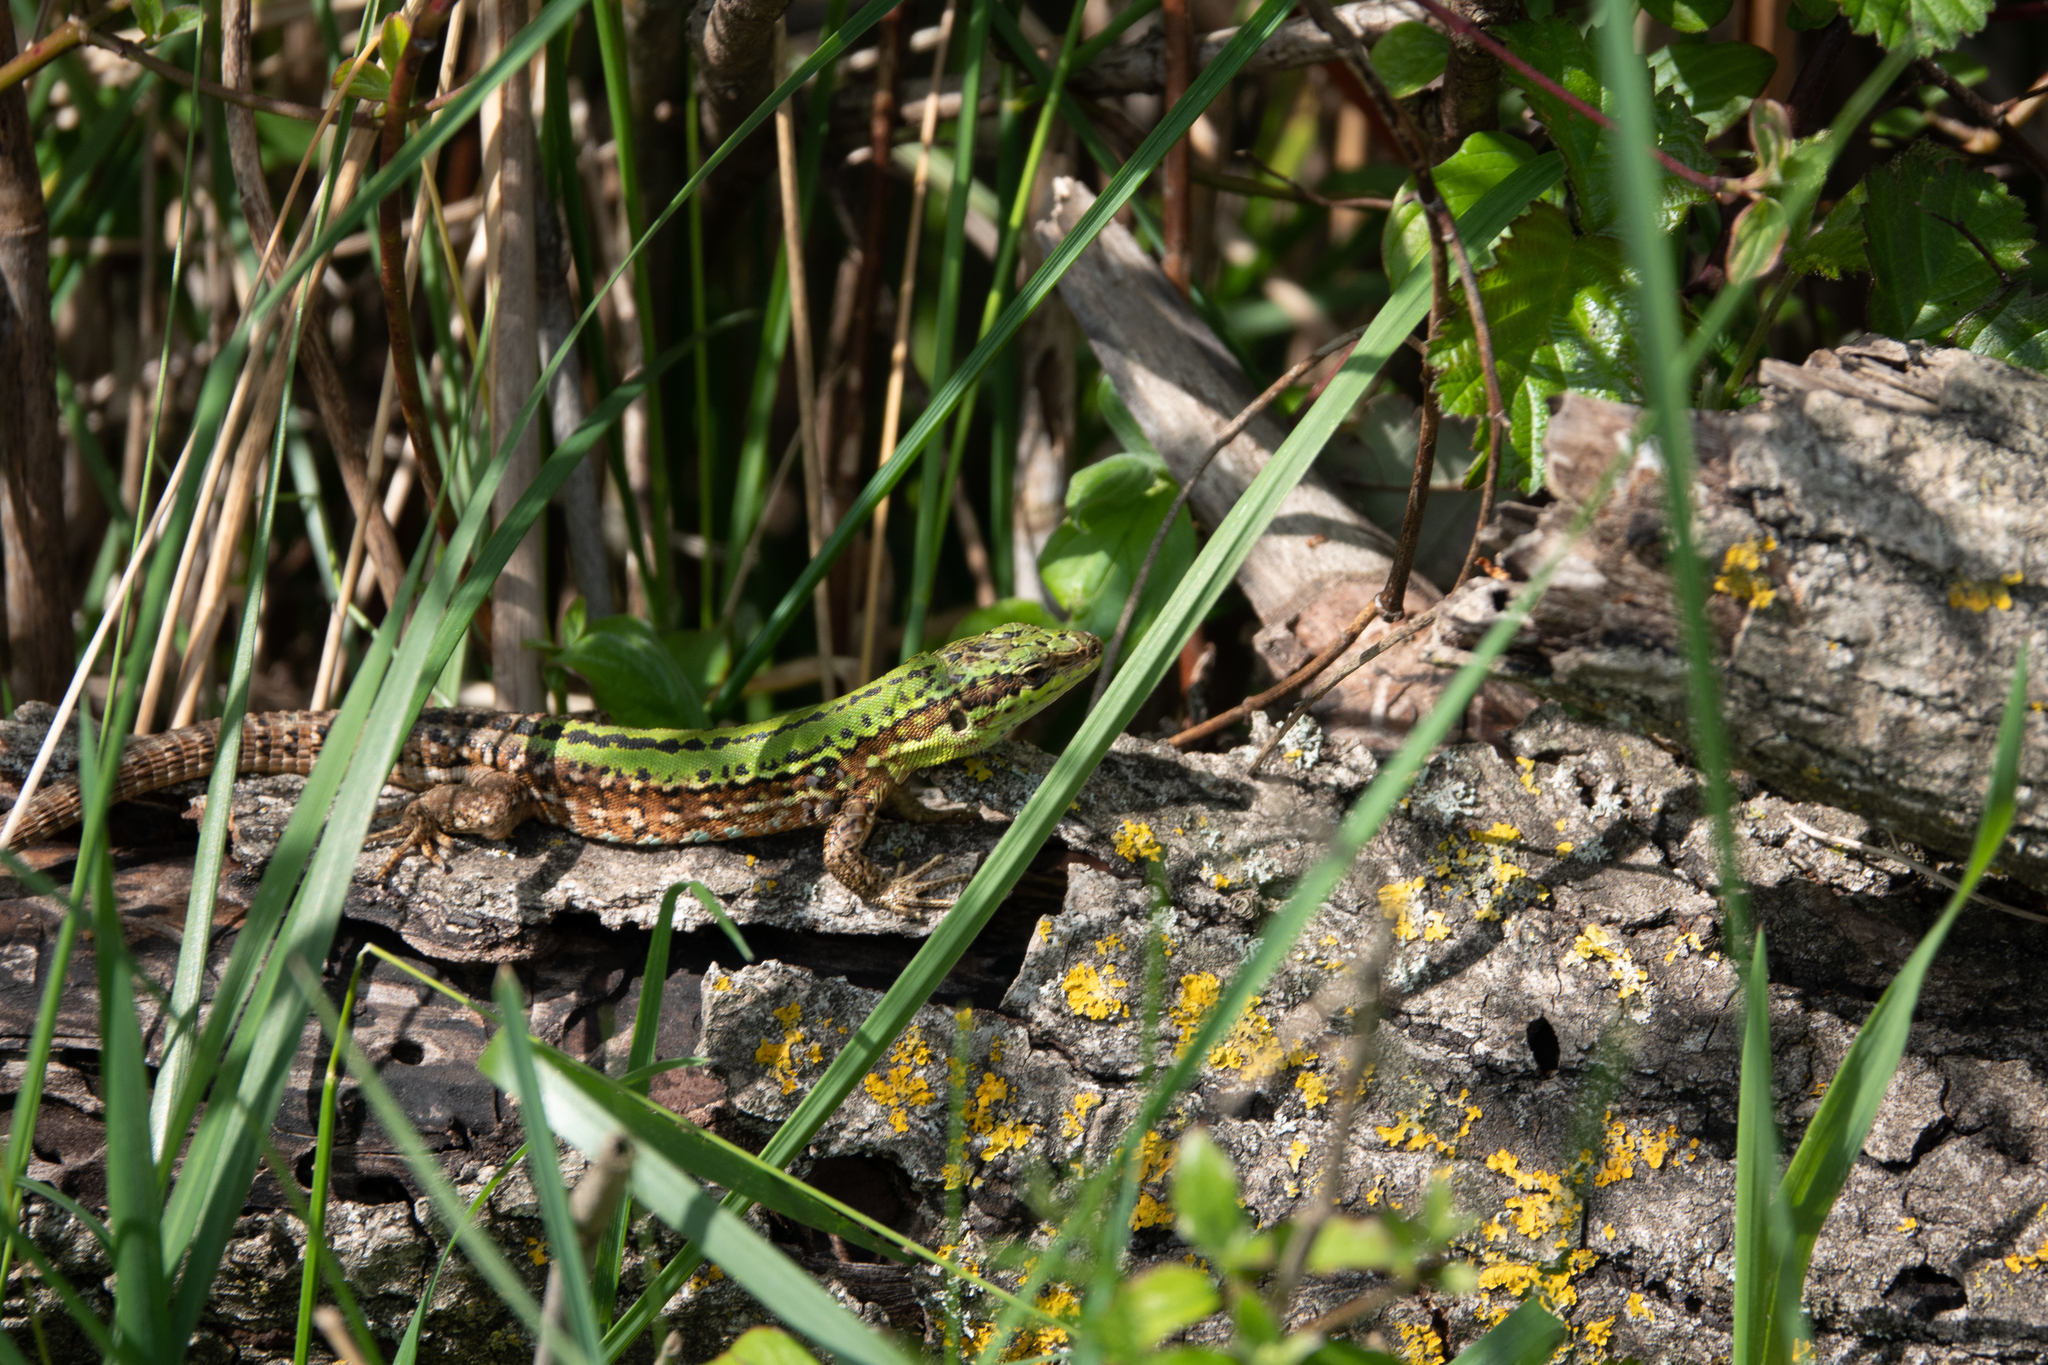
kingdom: Animalia
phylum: Chordata
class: Squamata
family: Lacertidae
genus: Podarcis
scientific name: Podarcis siculus
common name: Italian wall lizard
